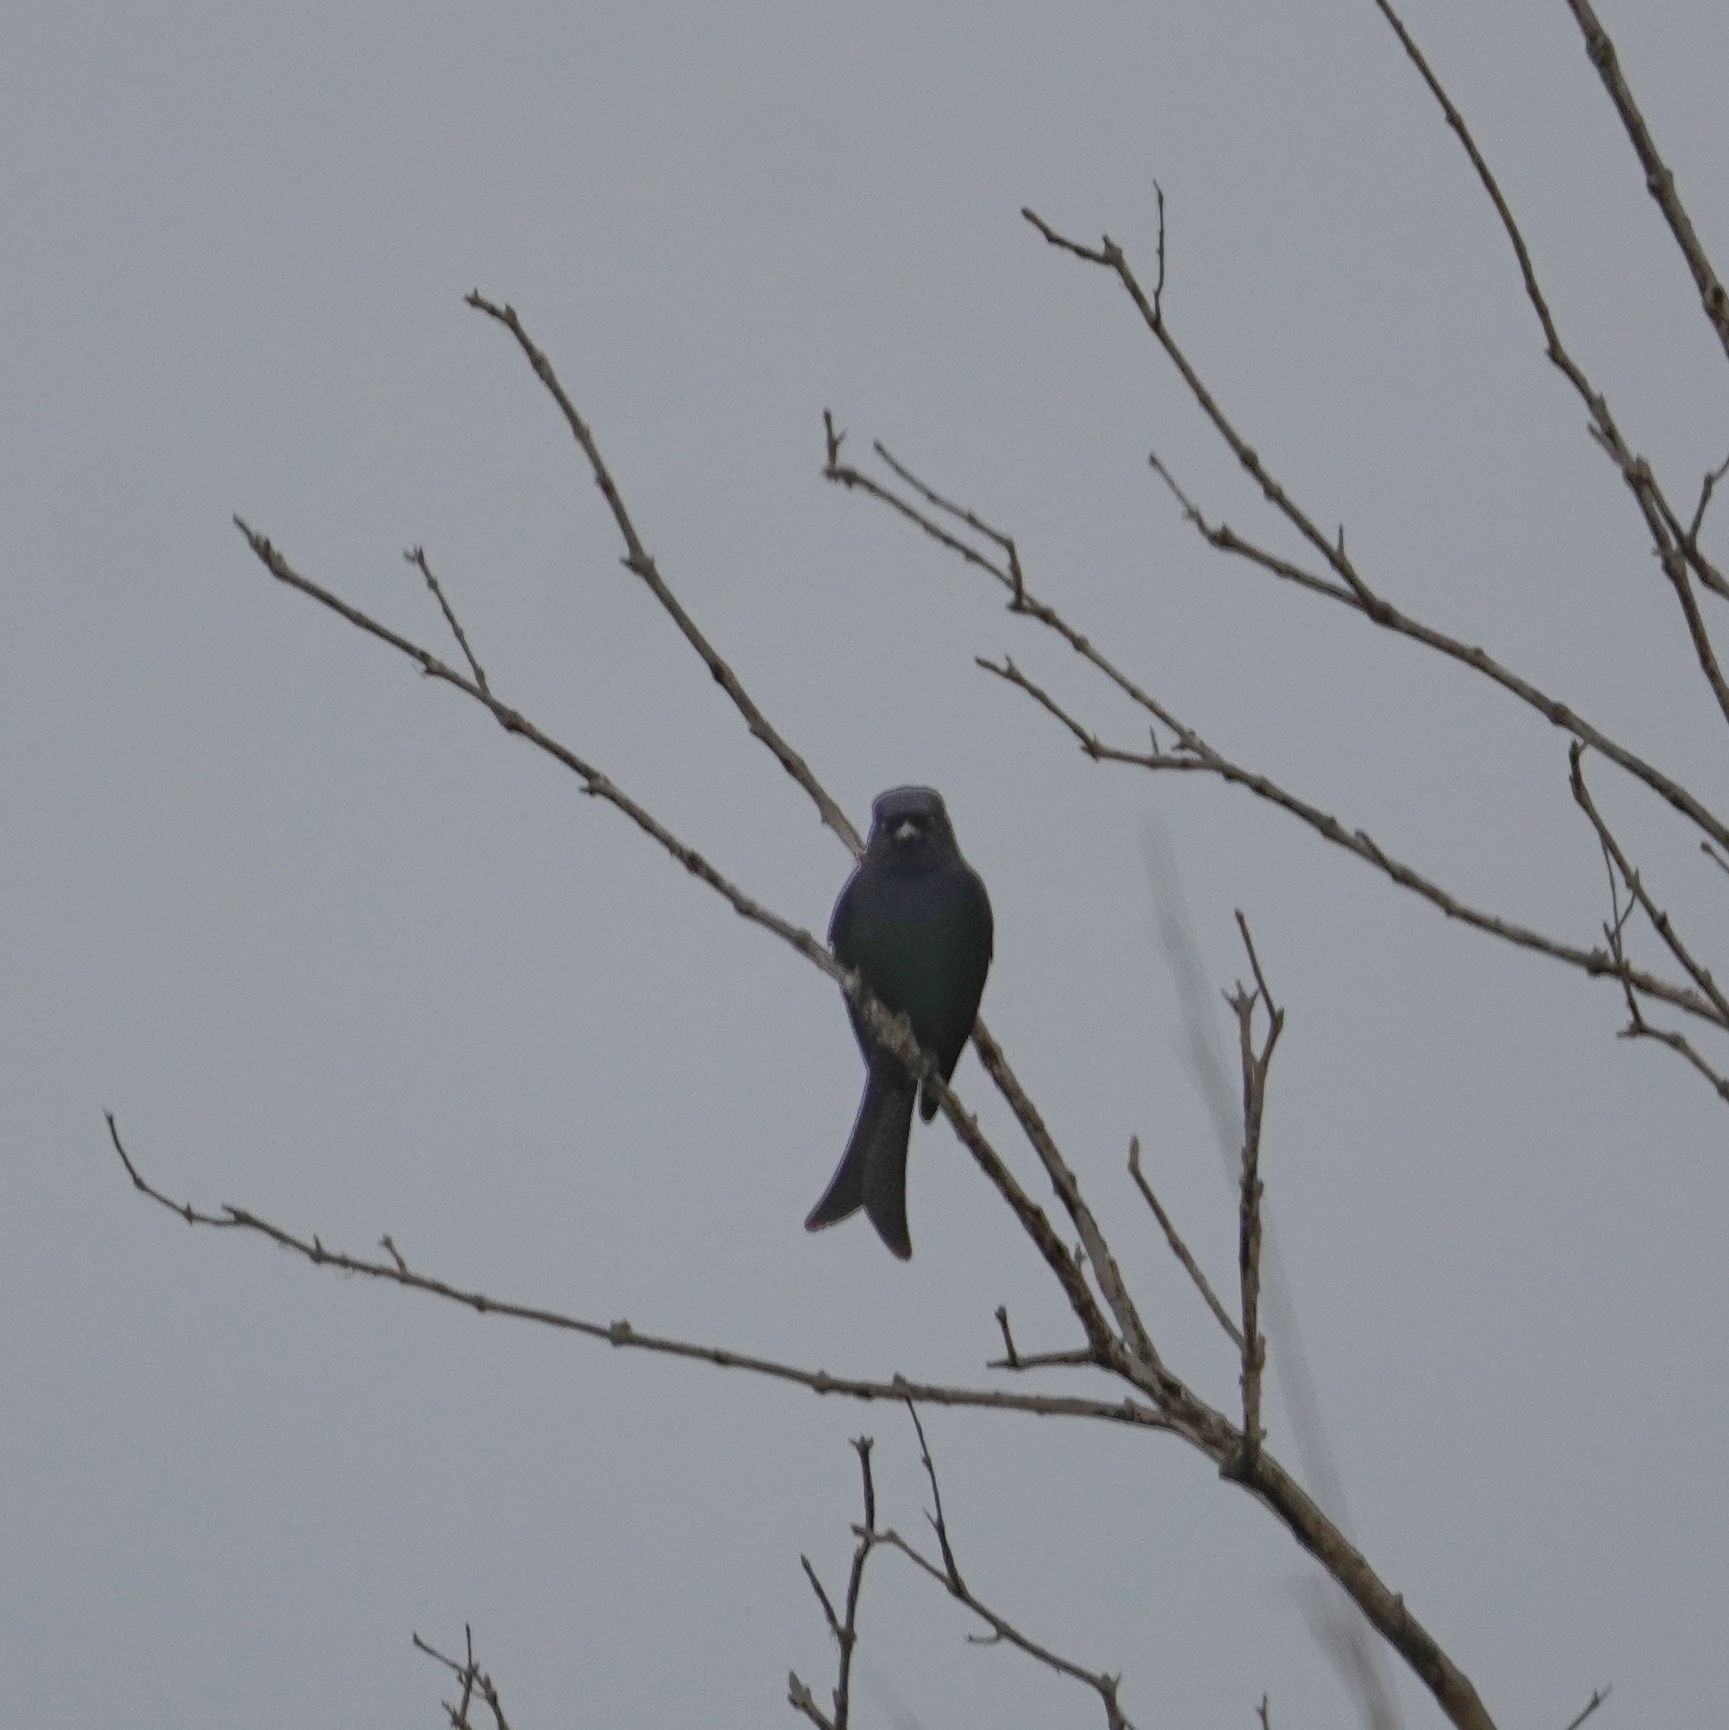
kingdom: Animalia
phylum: Chordata
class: Aves
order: Passeriformes
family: Dicruridae
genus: Dicrurus
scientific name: Dicrurus adsimilis
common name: Fork-tailed drongo
